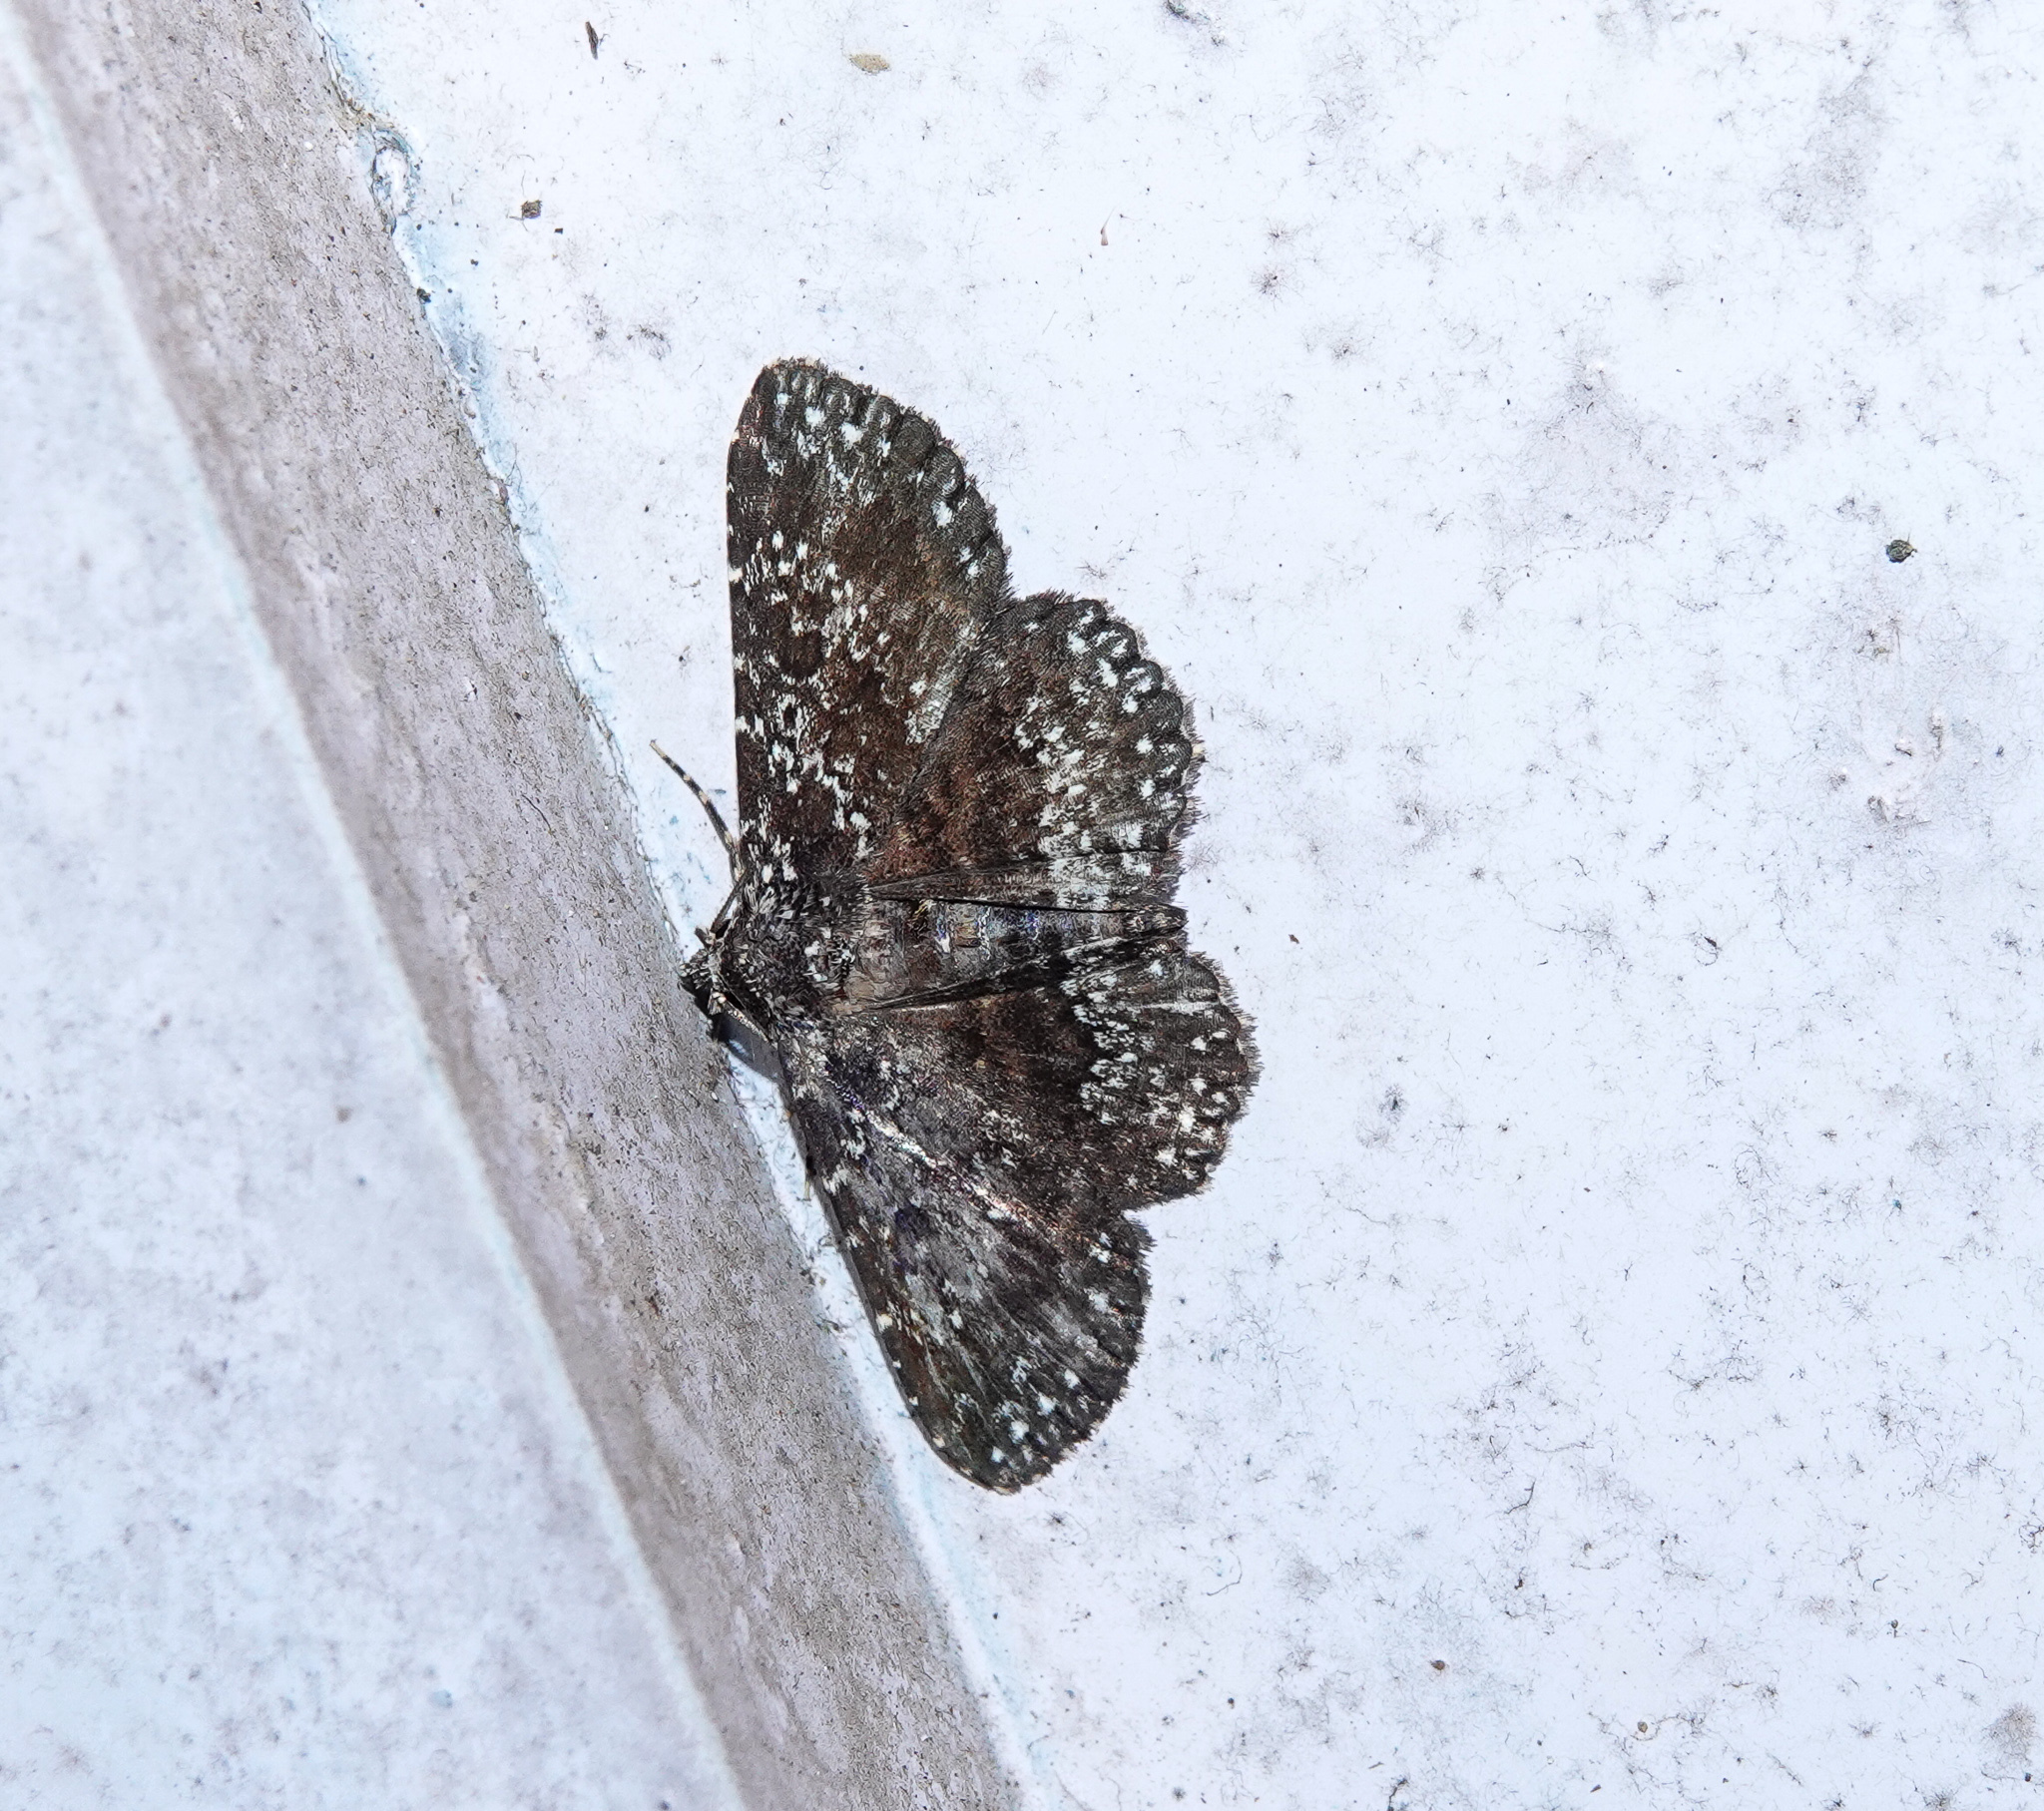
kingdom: Animalia
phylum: Arthropoda
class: Insecta
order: Lepidoptera
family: Erebidae
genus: Caduca
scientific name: Caduca albopunctata
